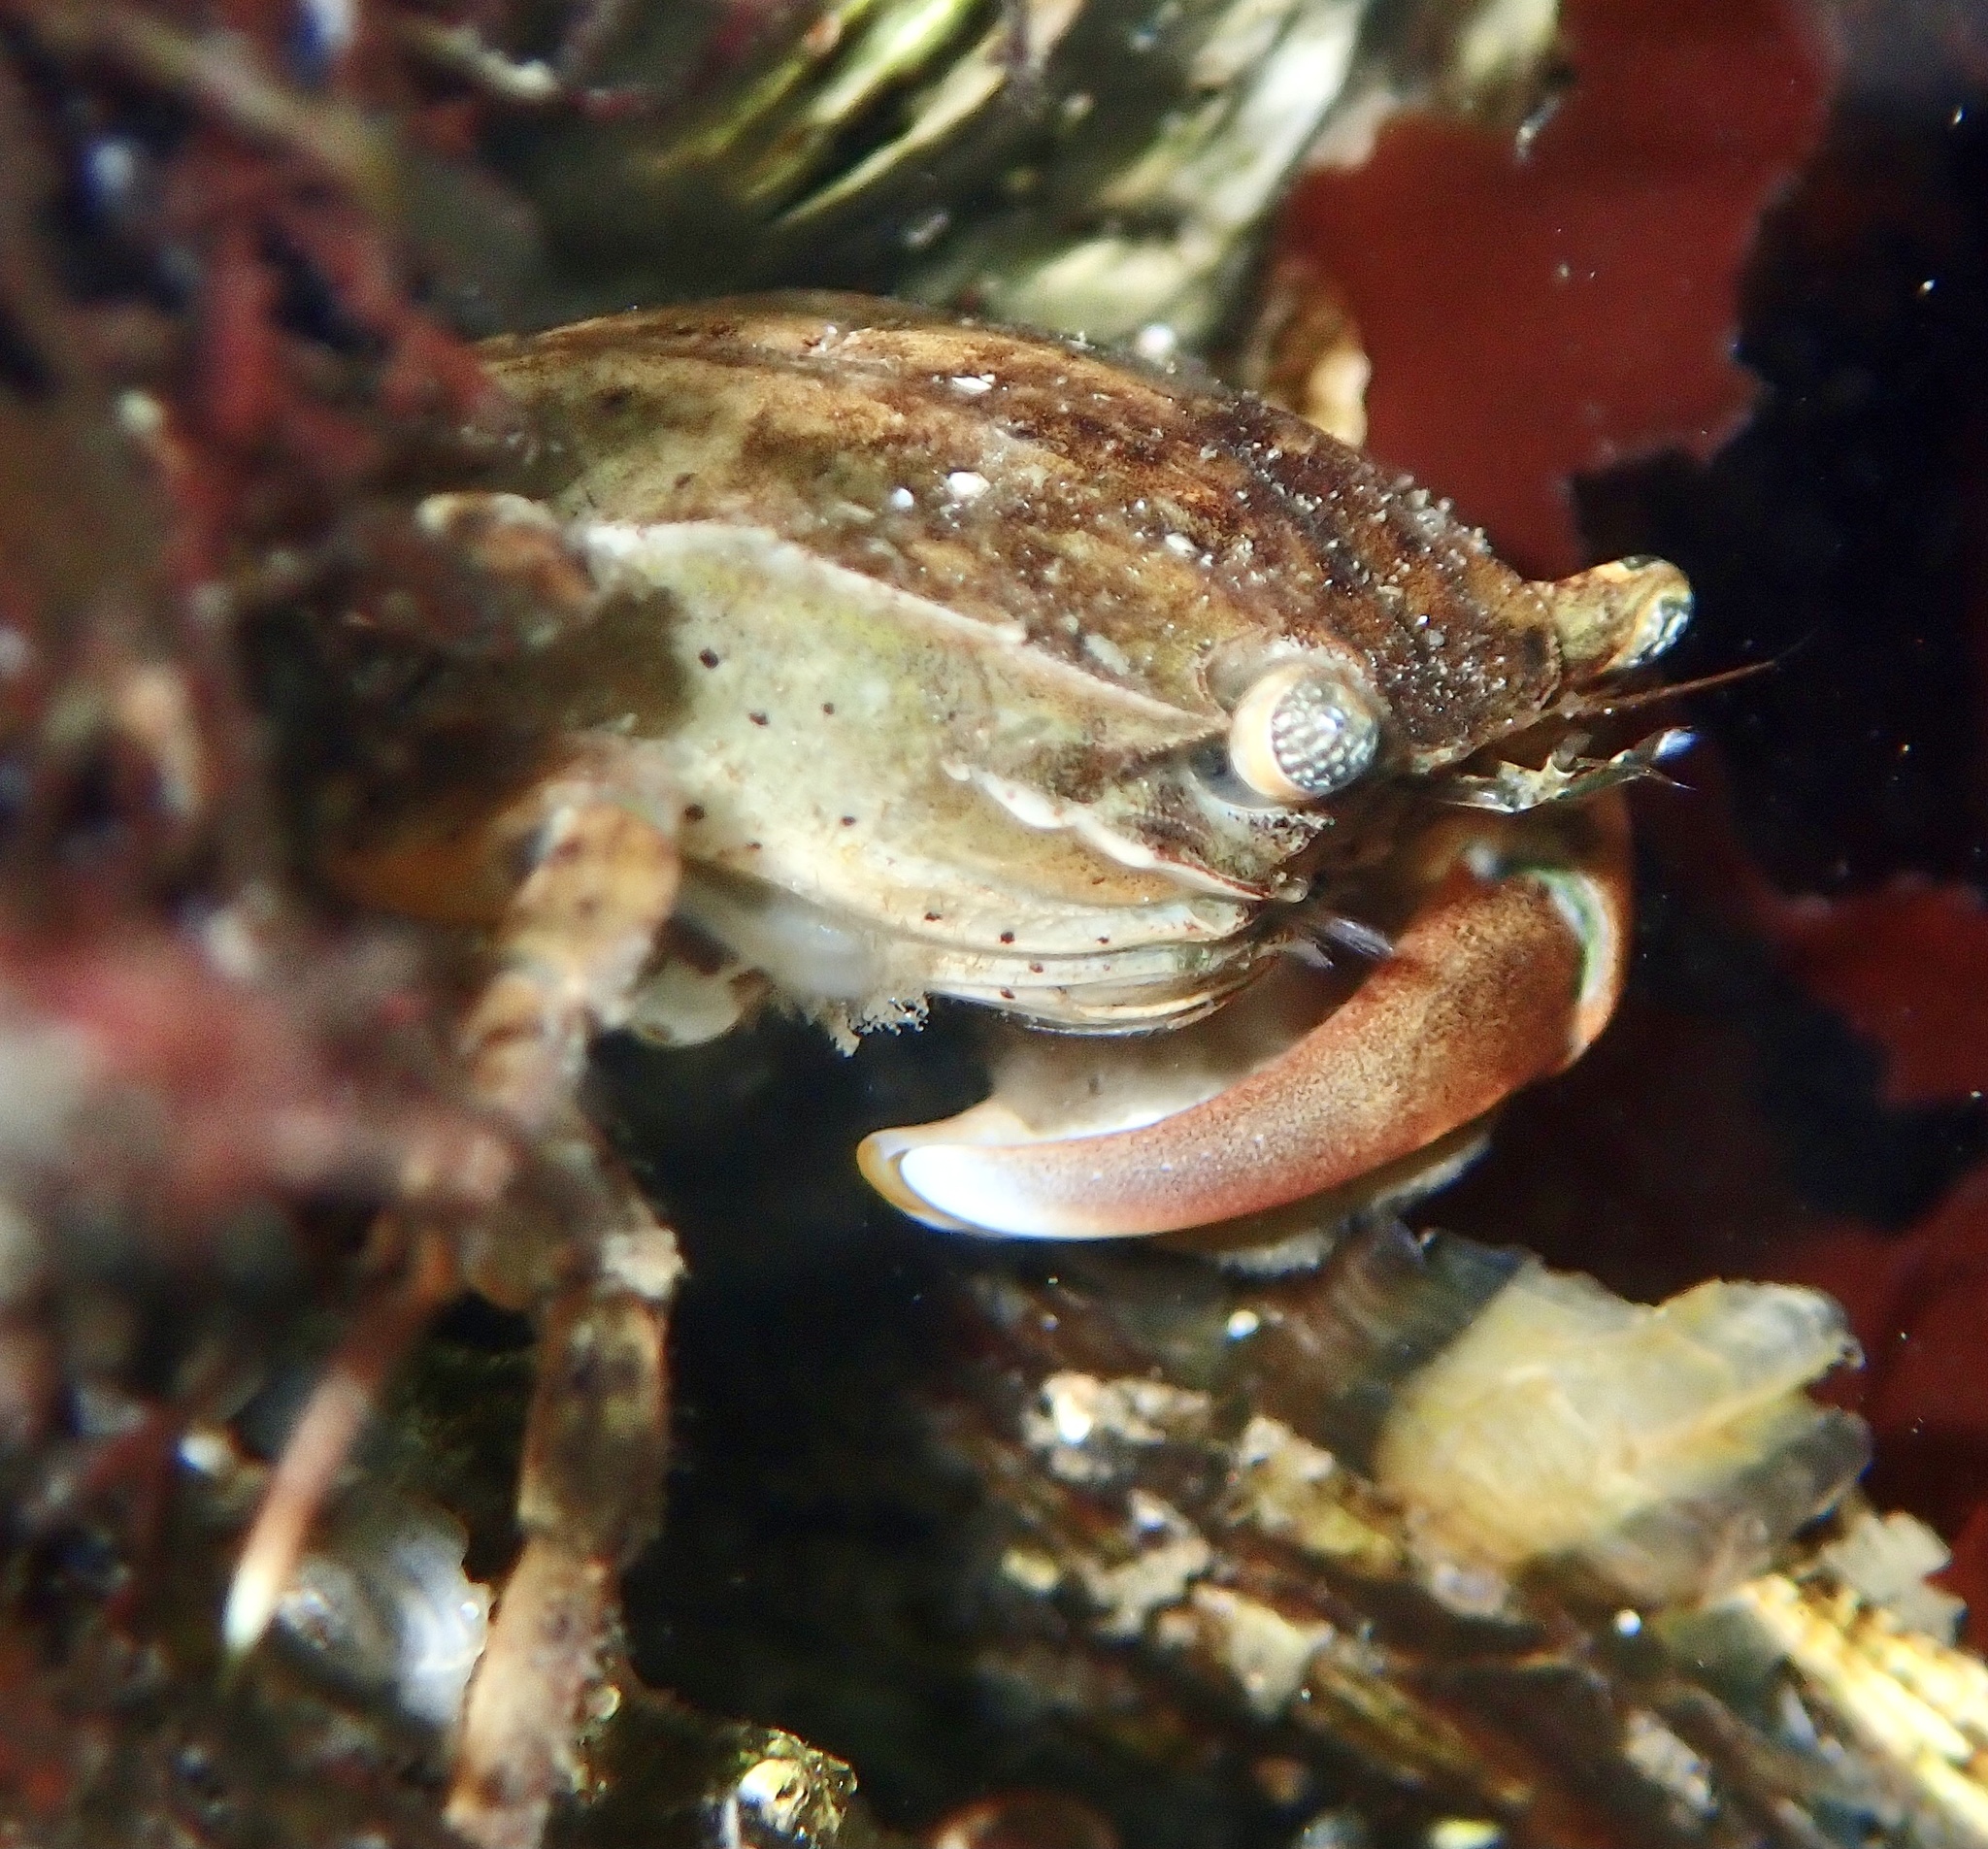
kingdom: Animalia
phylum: Arthropoda
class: Malacostraca
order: Decapoda
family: Varunidae
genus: Hemigrapsus
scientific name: Hemigrapsus takanoi
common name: Asian brush crab
